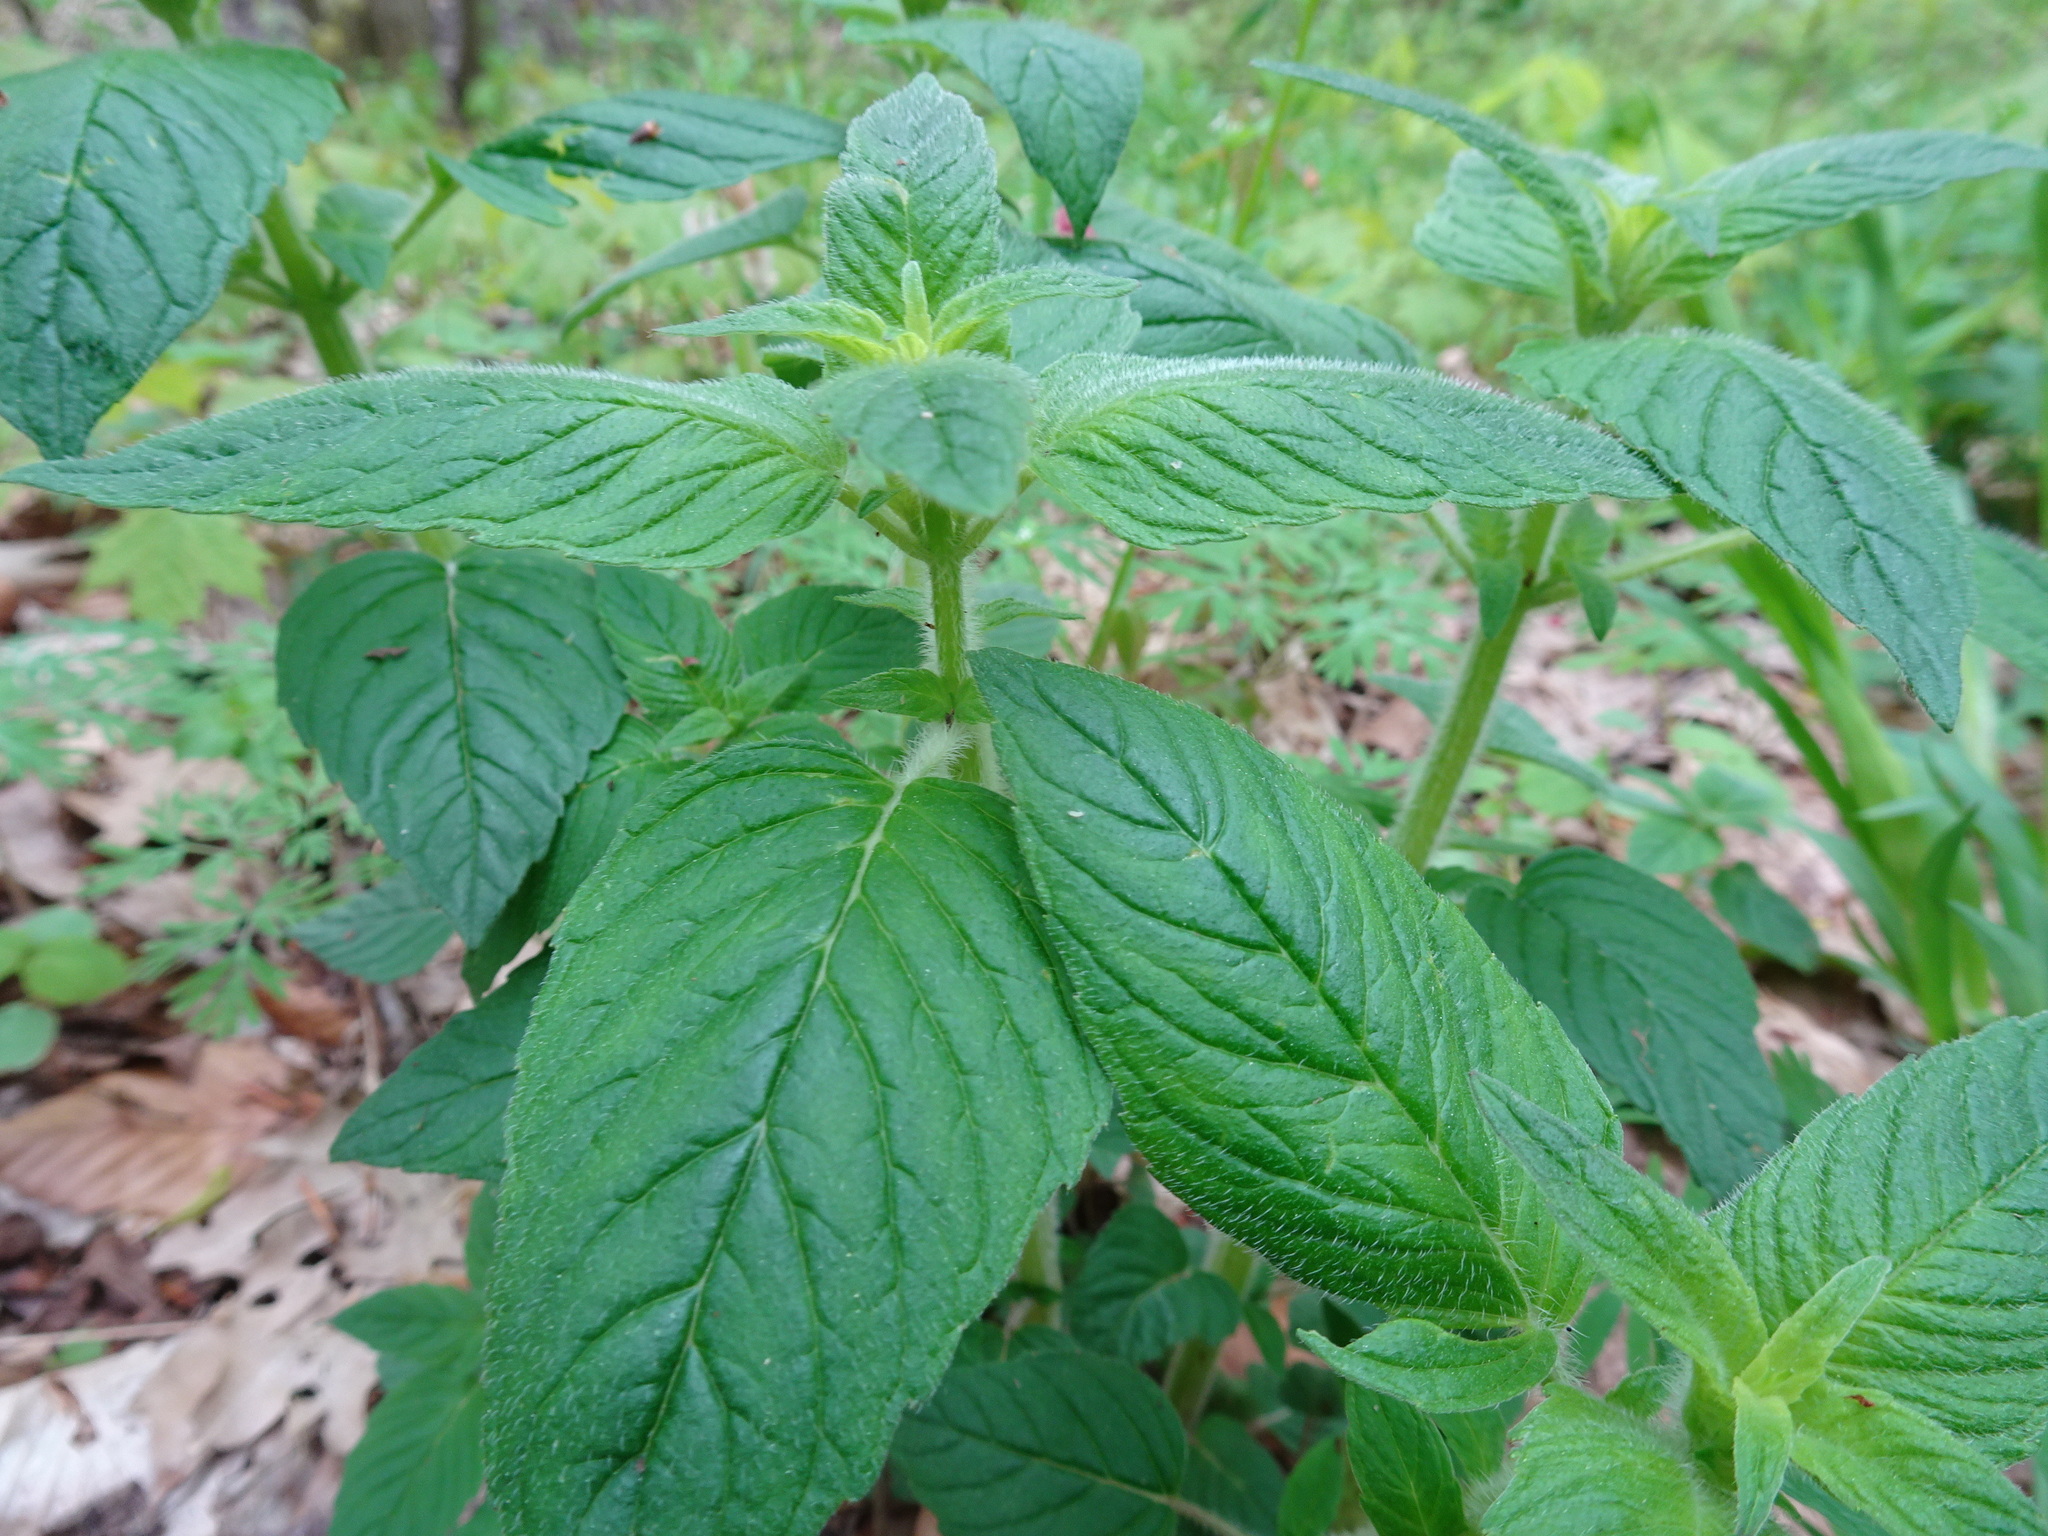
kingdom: Plantae
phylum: Tracheophyta
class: Magnoliopsida
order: Lamiales
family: Lamiaceae
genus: Blephilia
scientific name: Blephilia hirsuta
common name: Hairy blephilia
